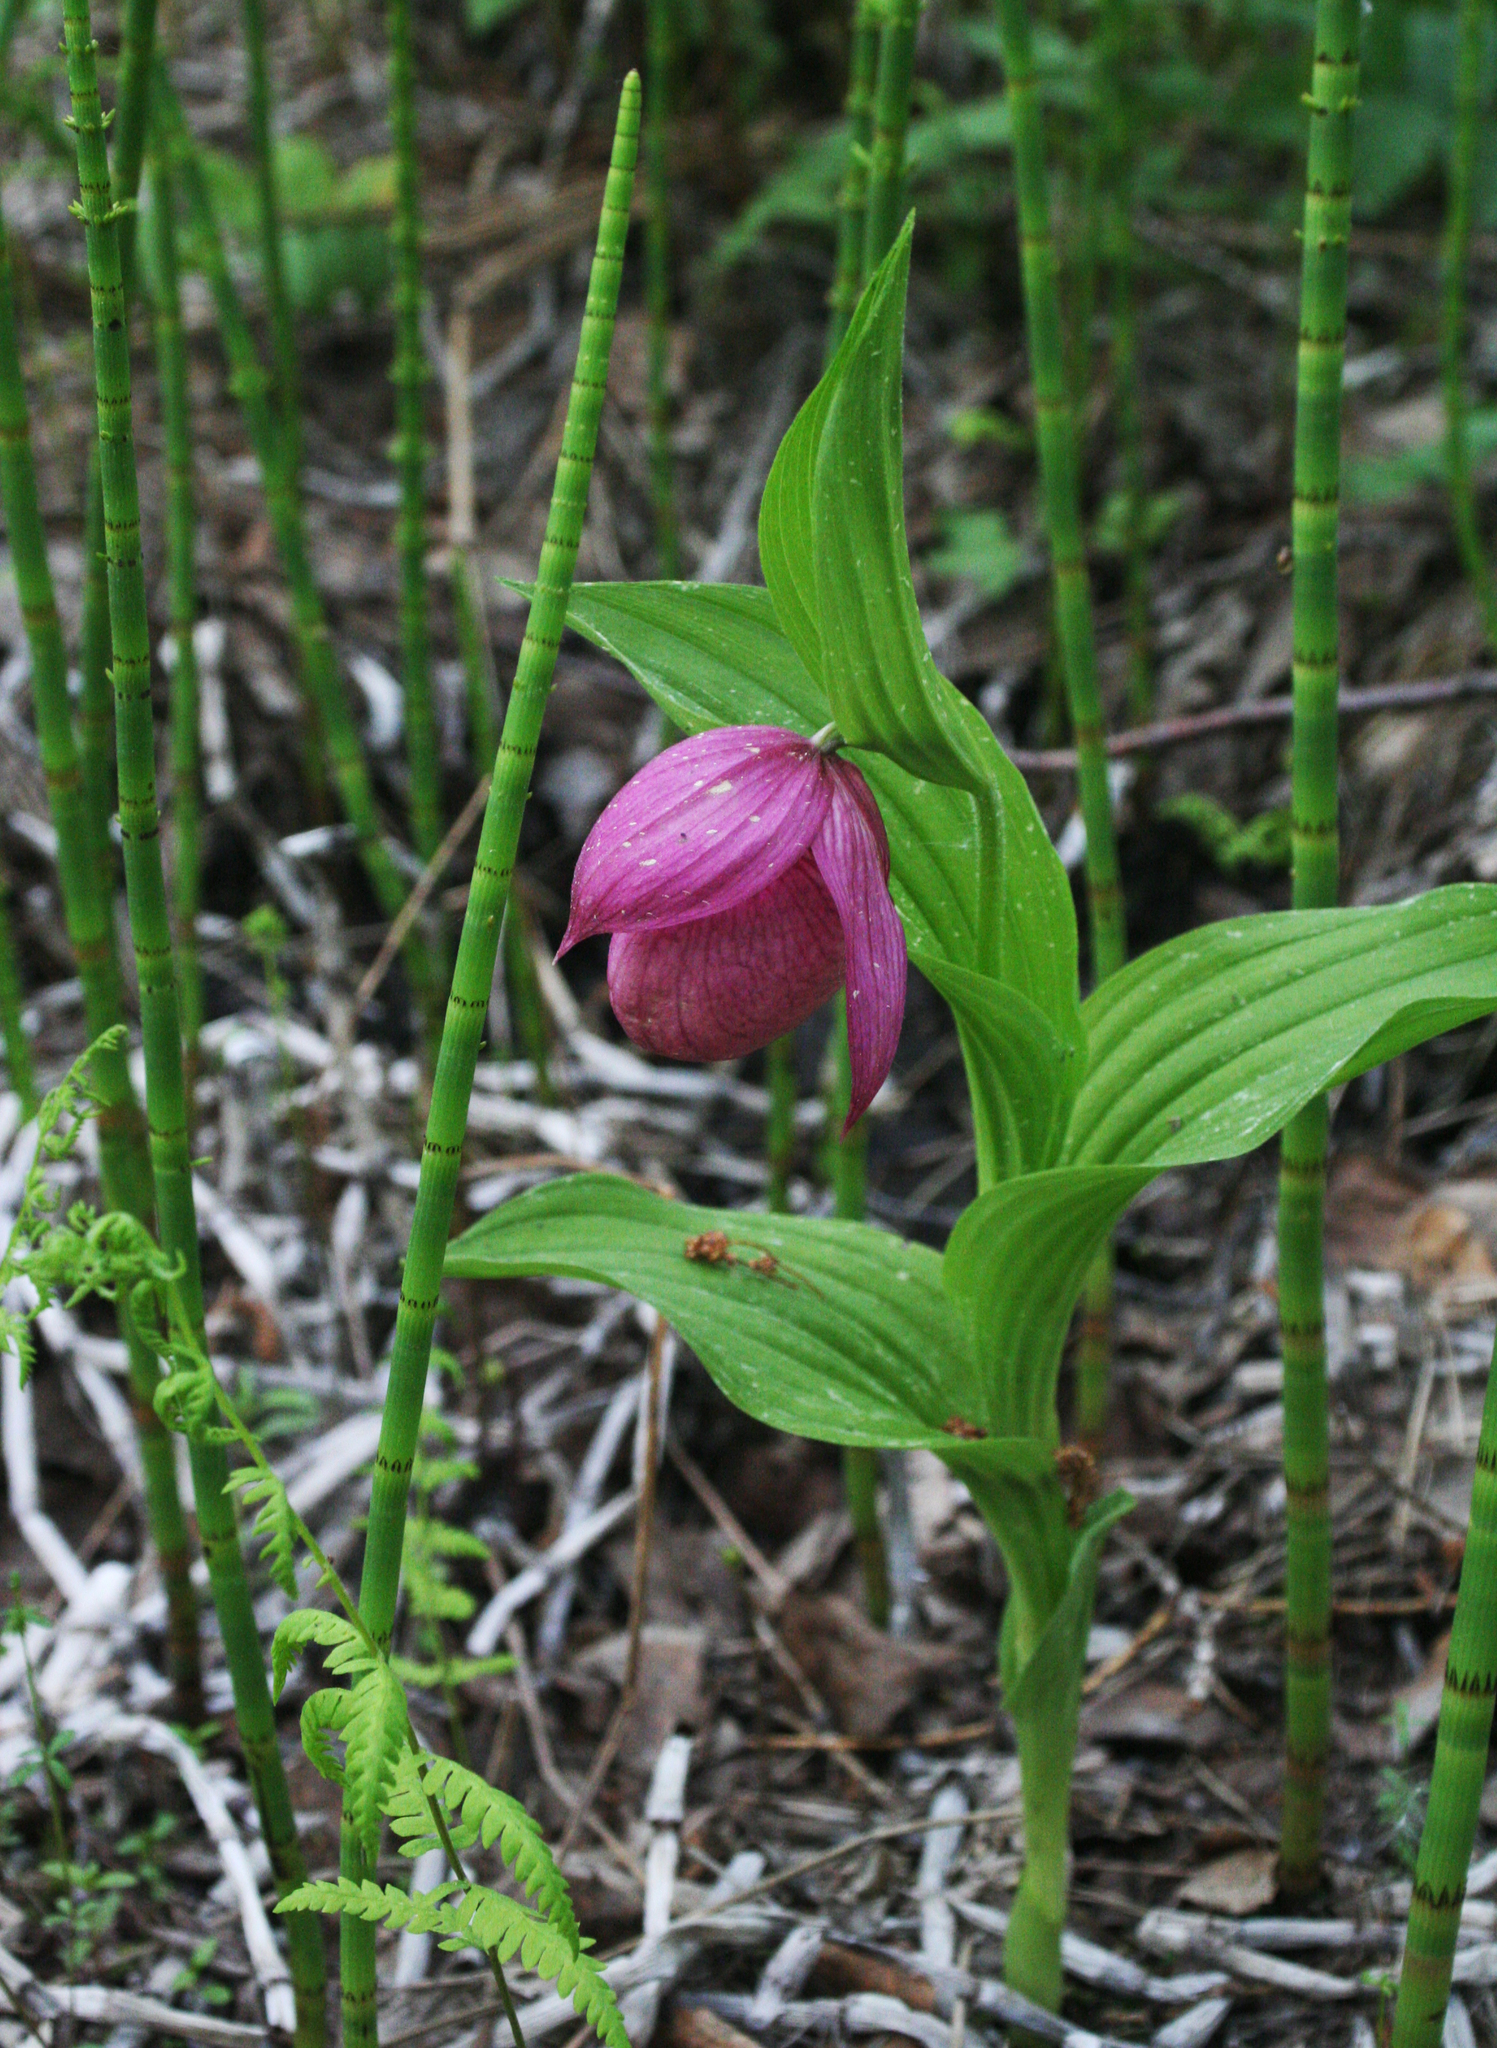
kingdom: Plantae
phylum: Tracheophyta
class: Liliopsida
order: Asparagales
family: Orchidaceae
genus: Cypripedium
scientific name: Cypripedium macranthos
